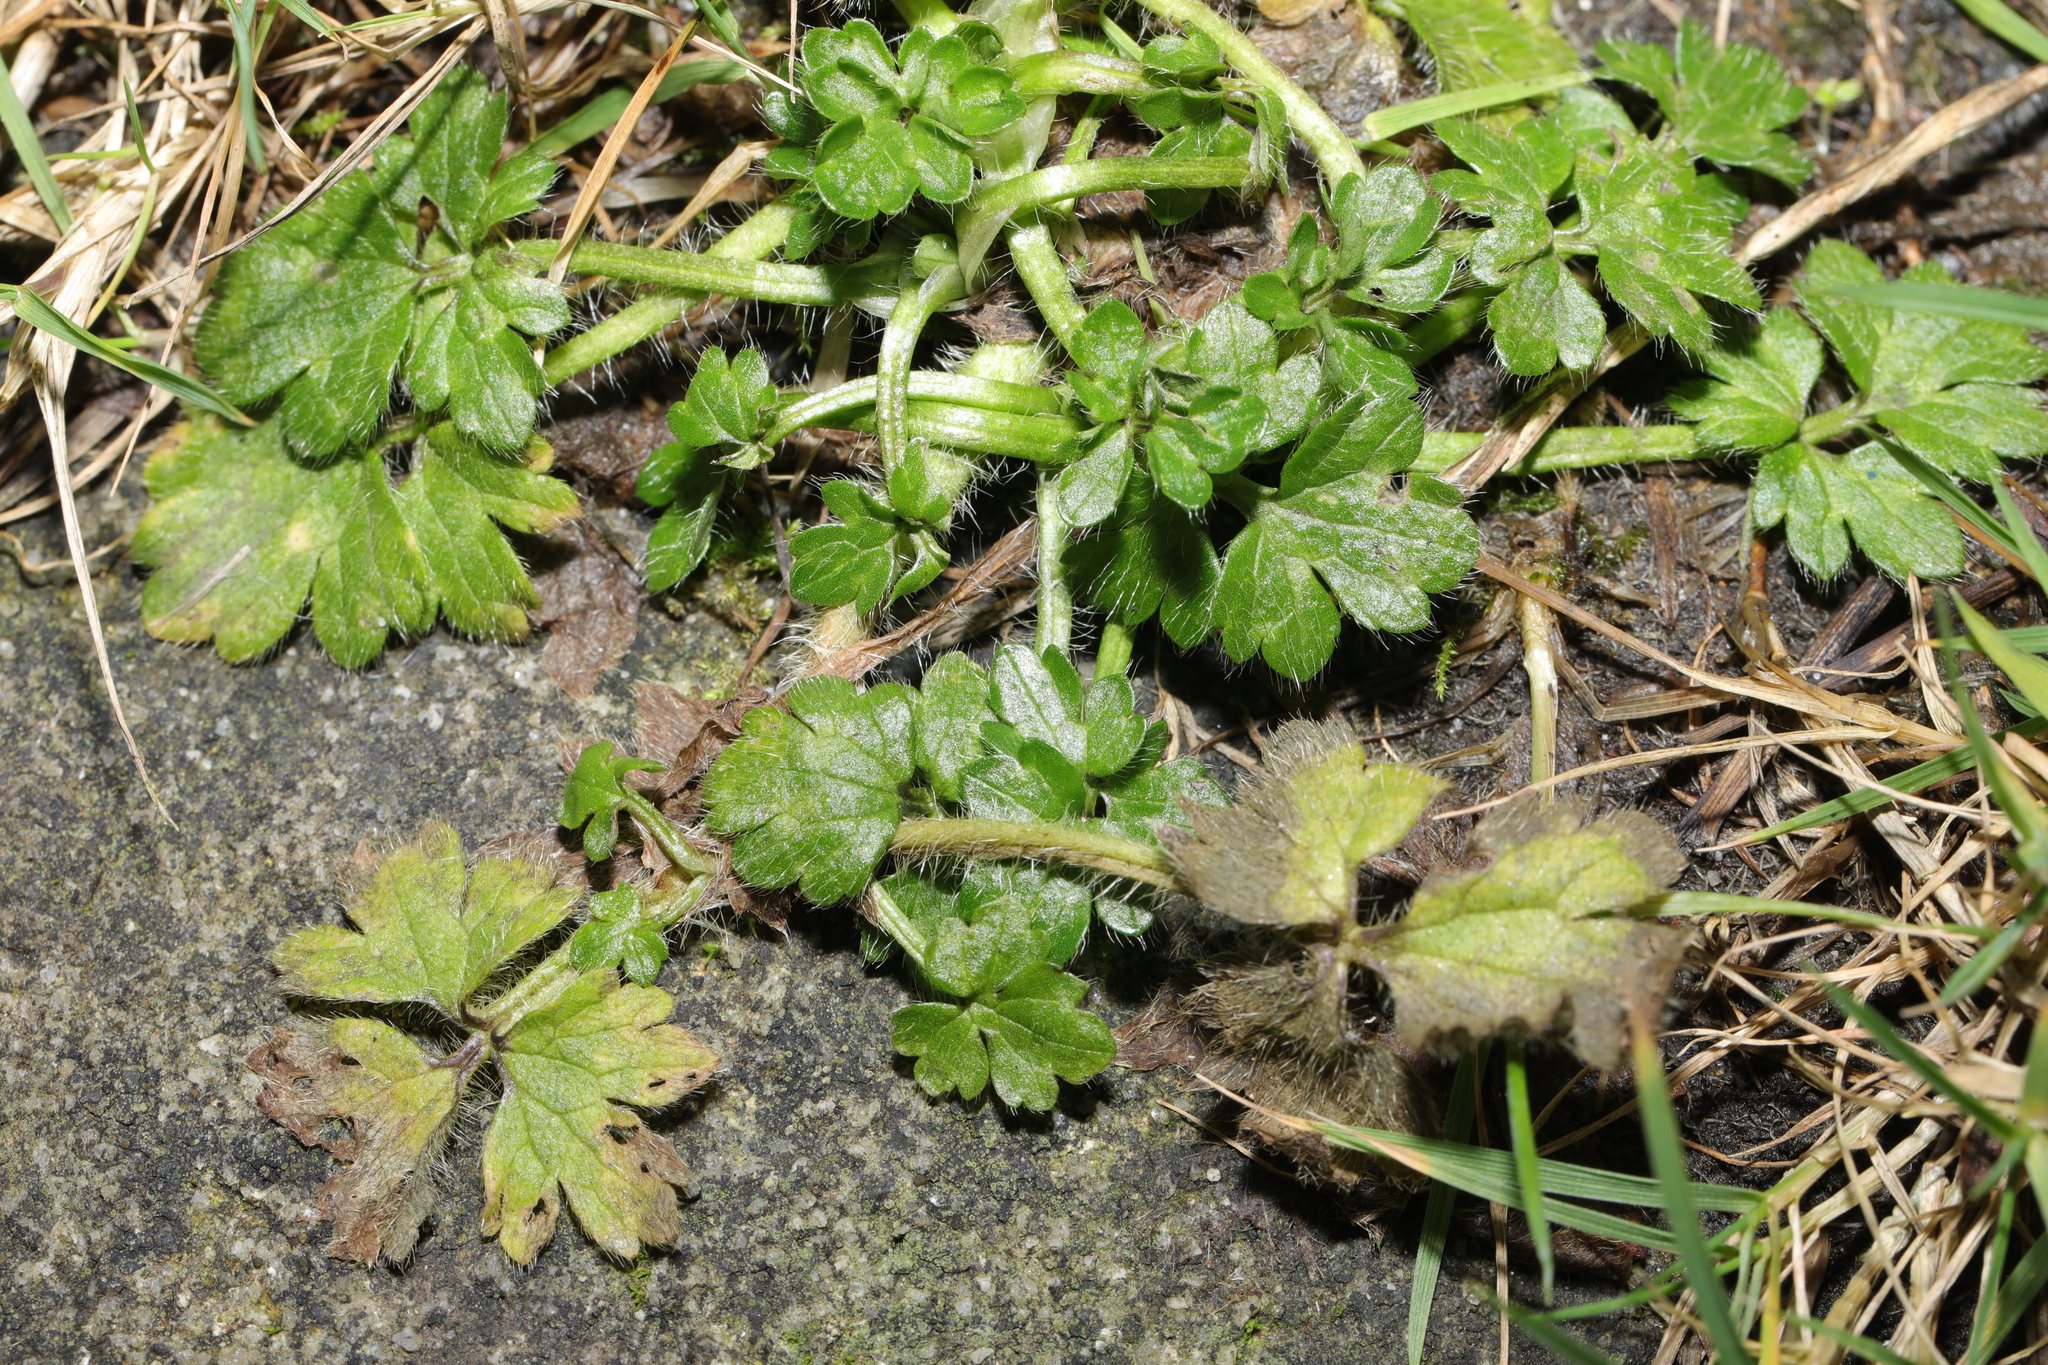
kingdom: Plantae
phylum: Tracheophyta
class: Magnoliopsida
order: Ranunculales
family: Ranunculaceae
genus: Ranunculus
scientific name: Ranunculus repens
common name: Creeping buttercup
